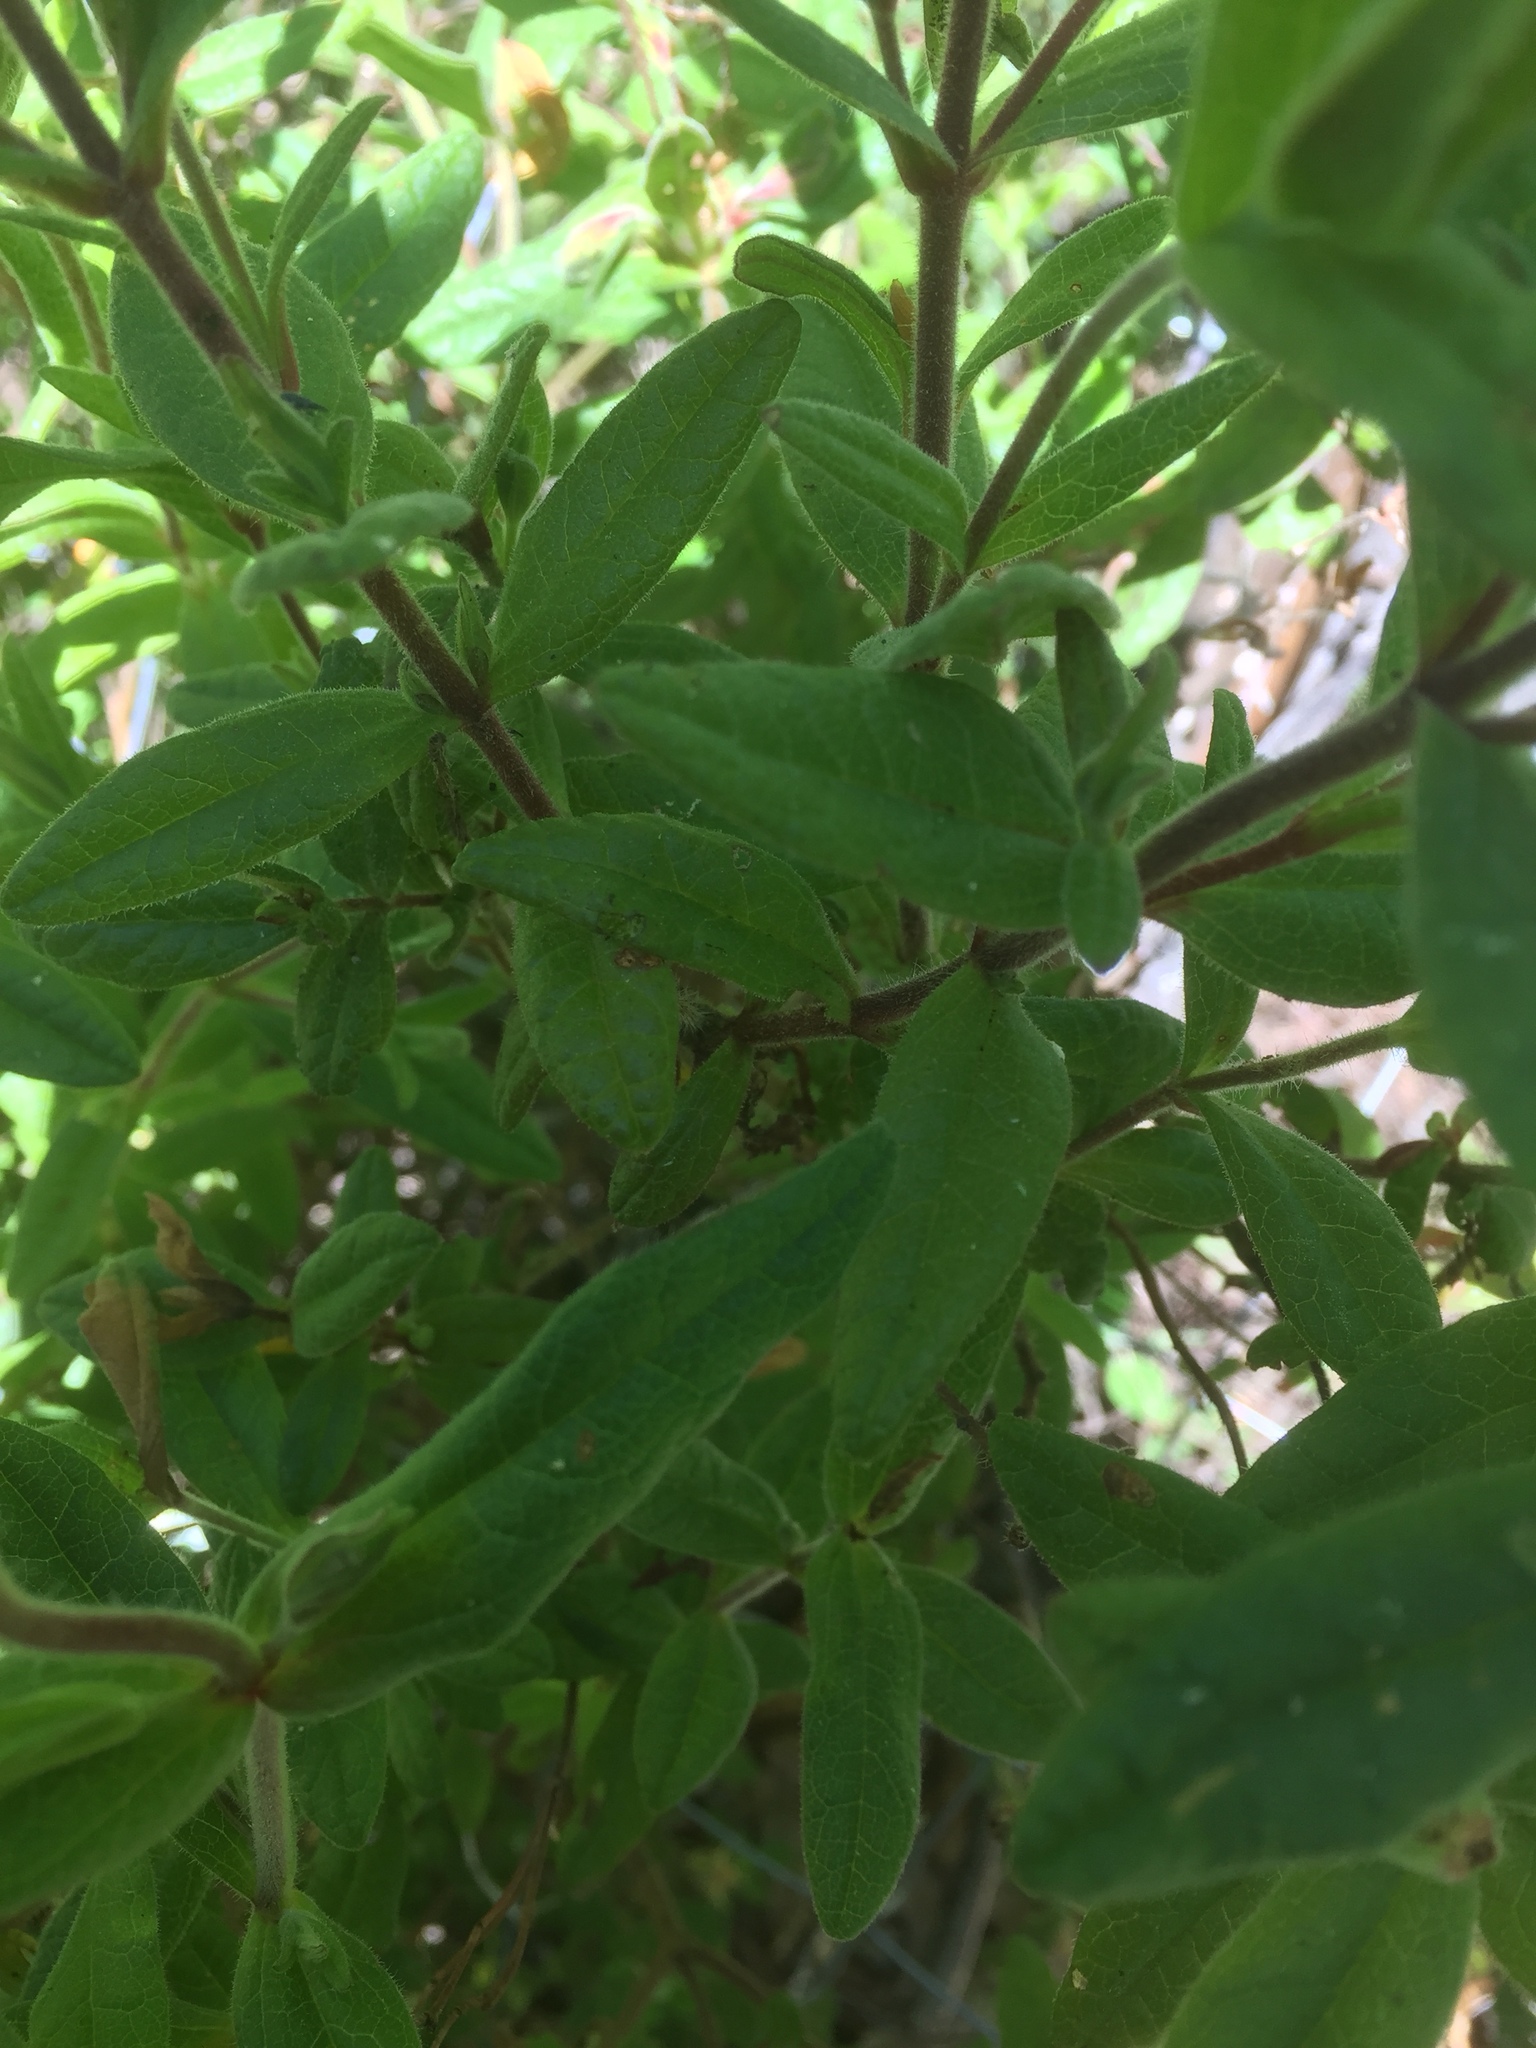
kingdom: Plantae
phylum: Tracheophyta
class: Magnoliopsida
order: Malvales
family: Cistaceae
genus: Cistus
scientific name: Cistus inflatus
